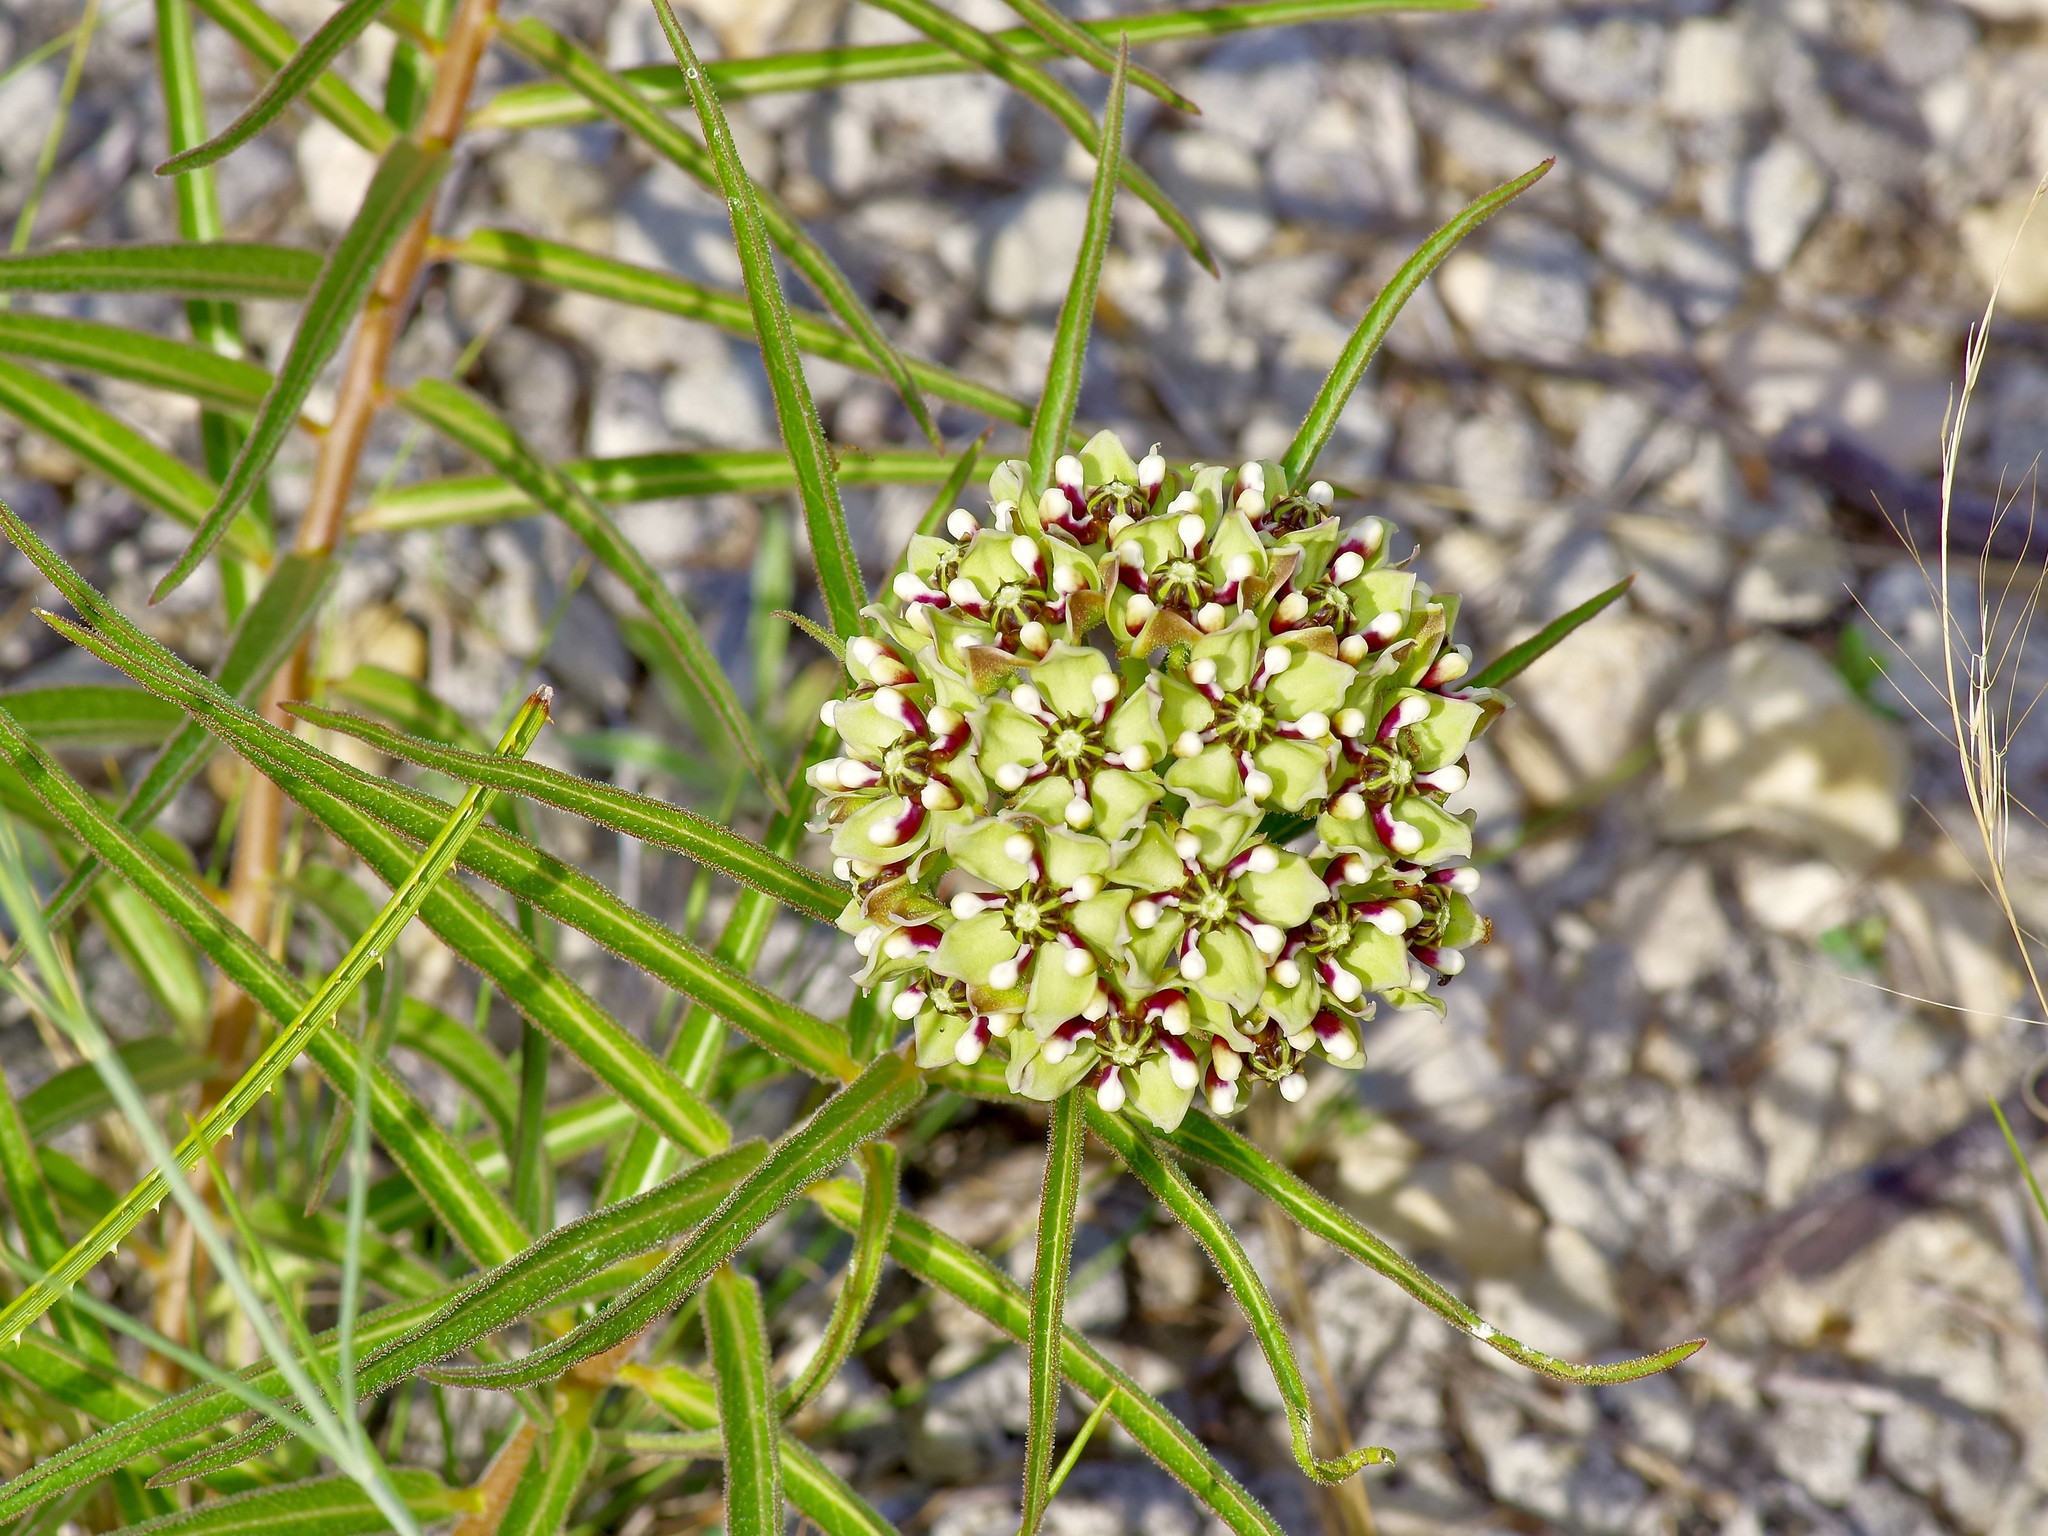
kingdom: Plantae
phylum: Tracheophyta
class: Magnoliopsida
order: Gentianales
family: Apocynaceae
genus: Asclepias
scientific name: Asclepias asperula
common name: Antelope horns
